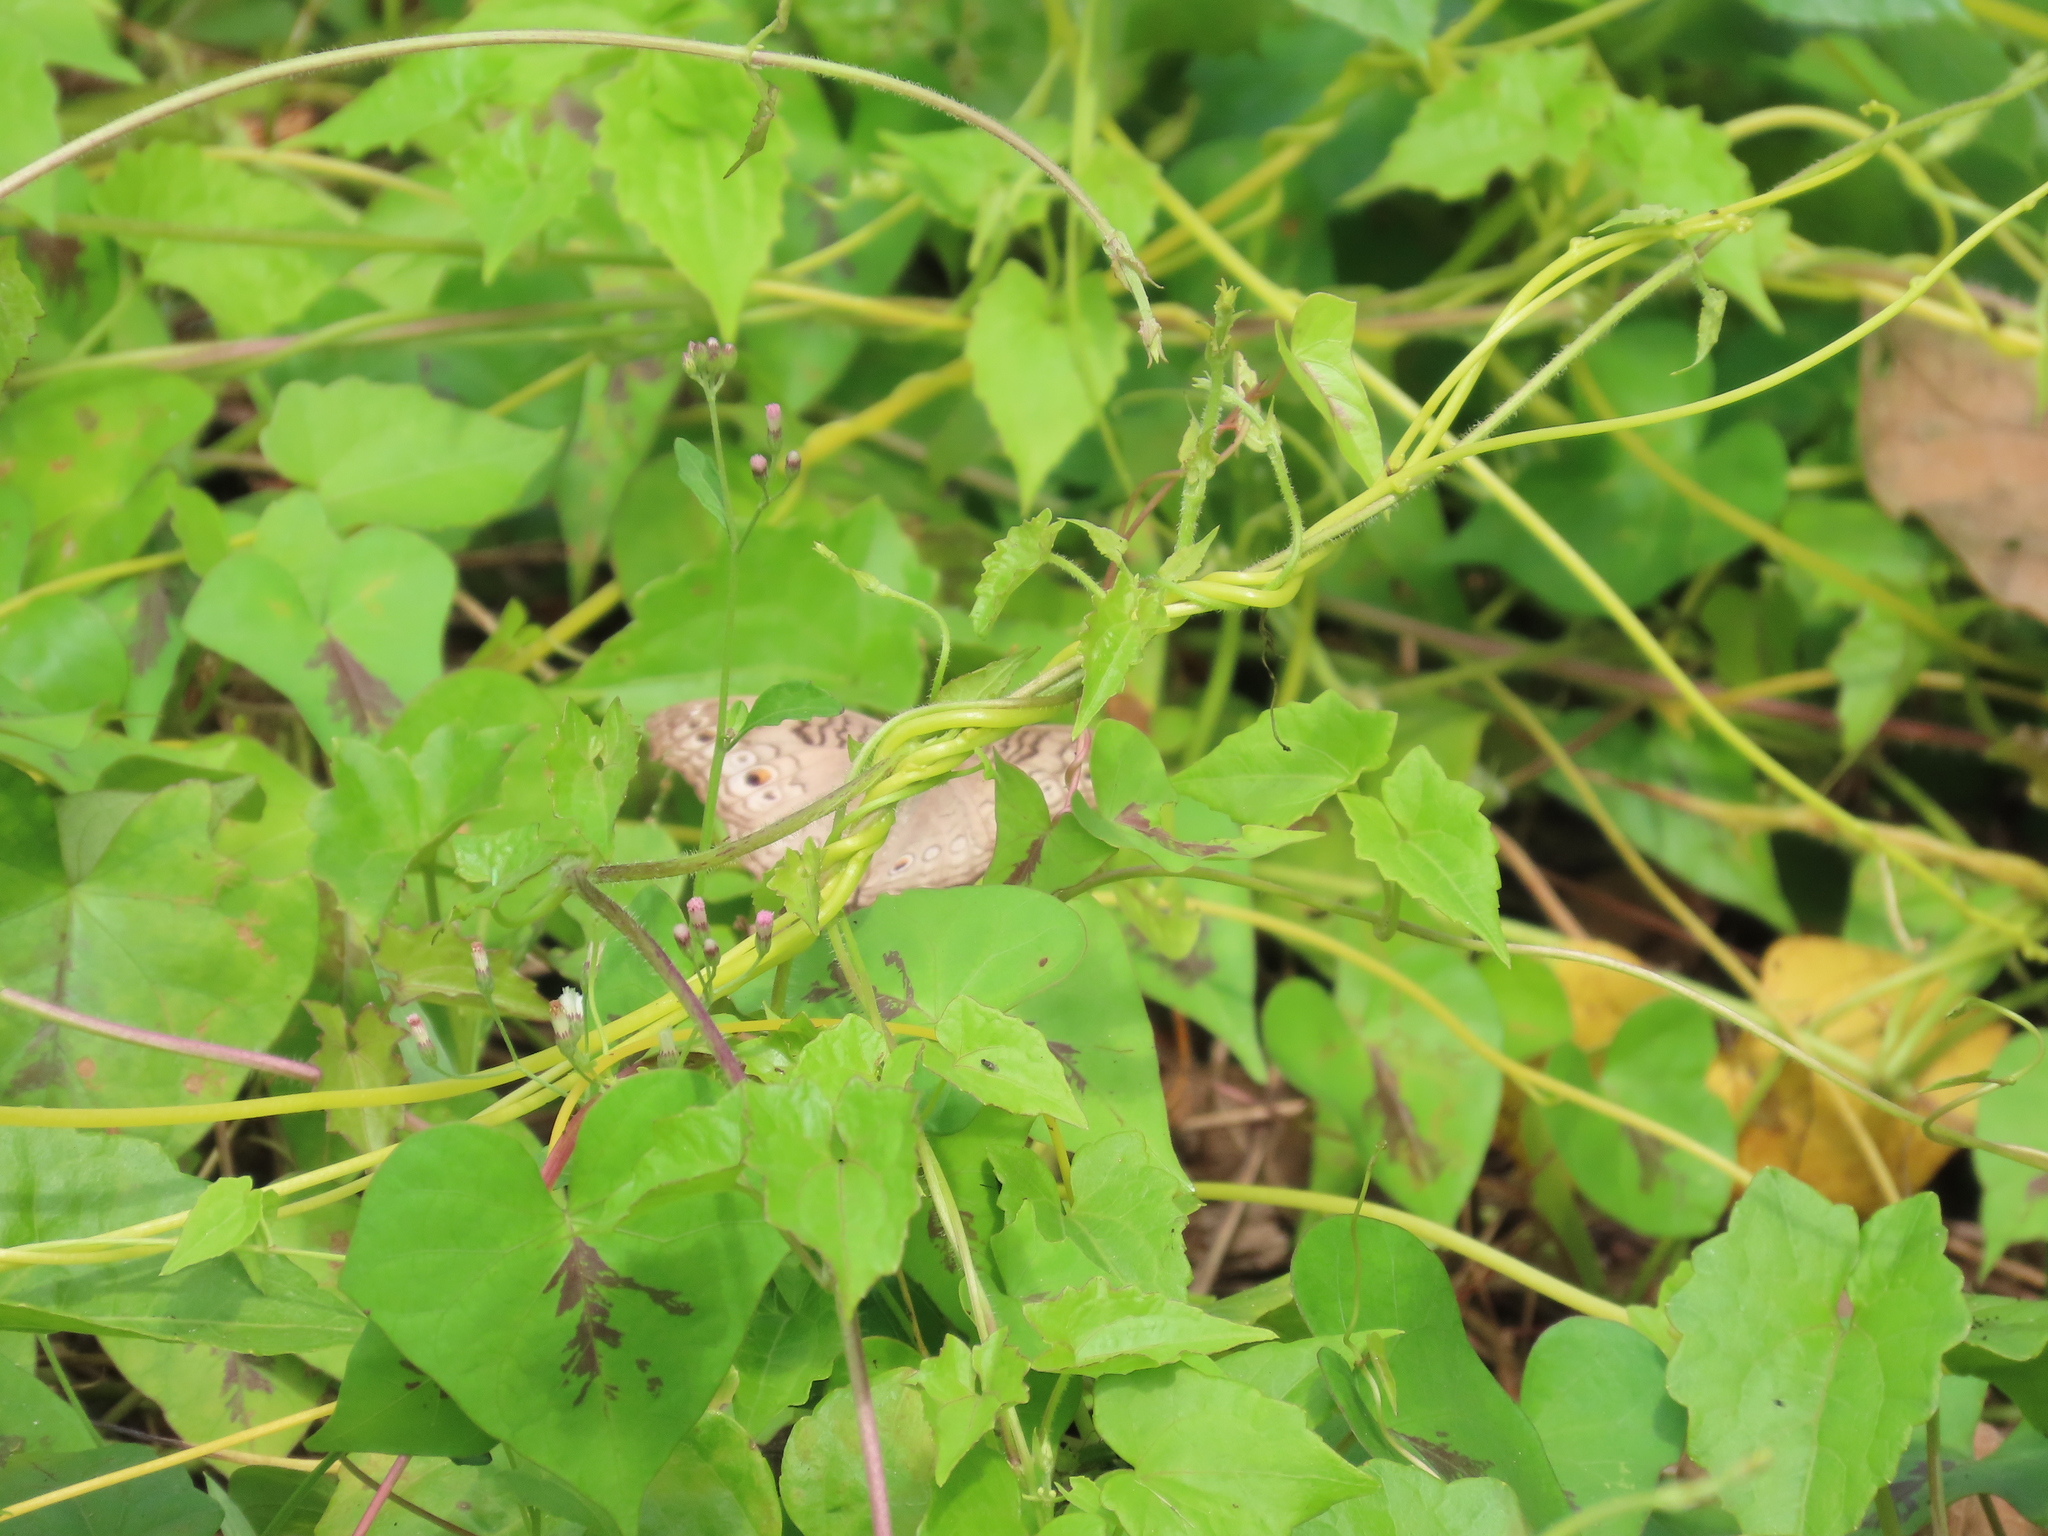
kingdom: Animalia
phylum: Arthropoda
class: Insecta
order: Lepidoptera
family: Nymphalidae
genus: Junonia
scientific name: Junonia atlites
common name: Grey pansy
